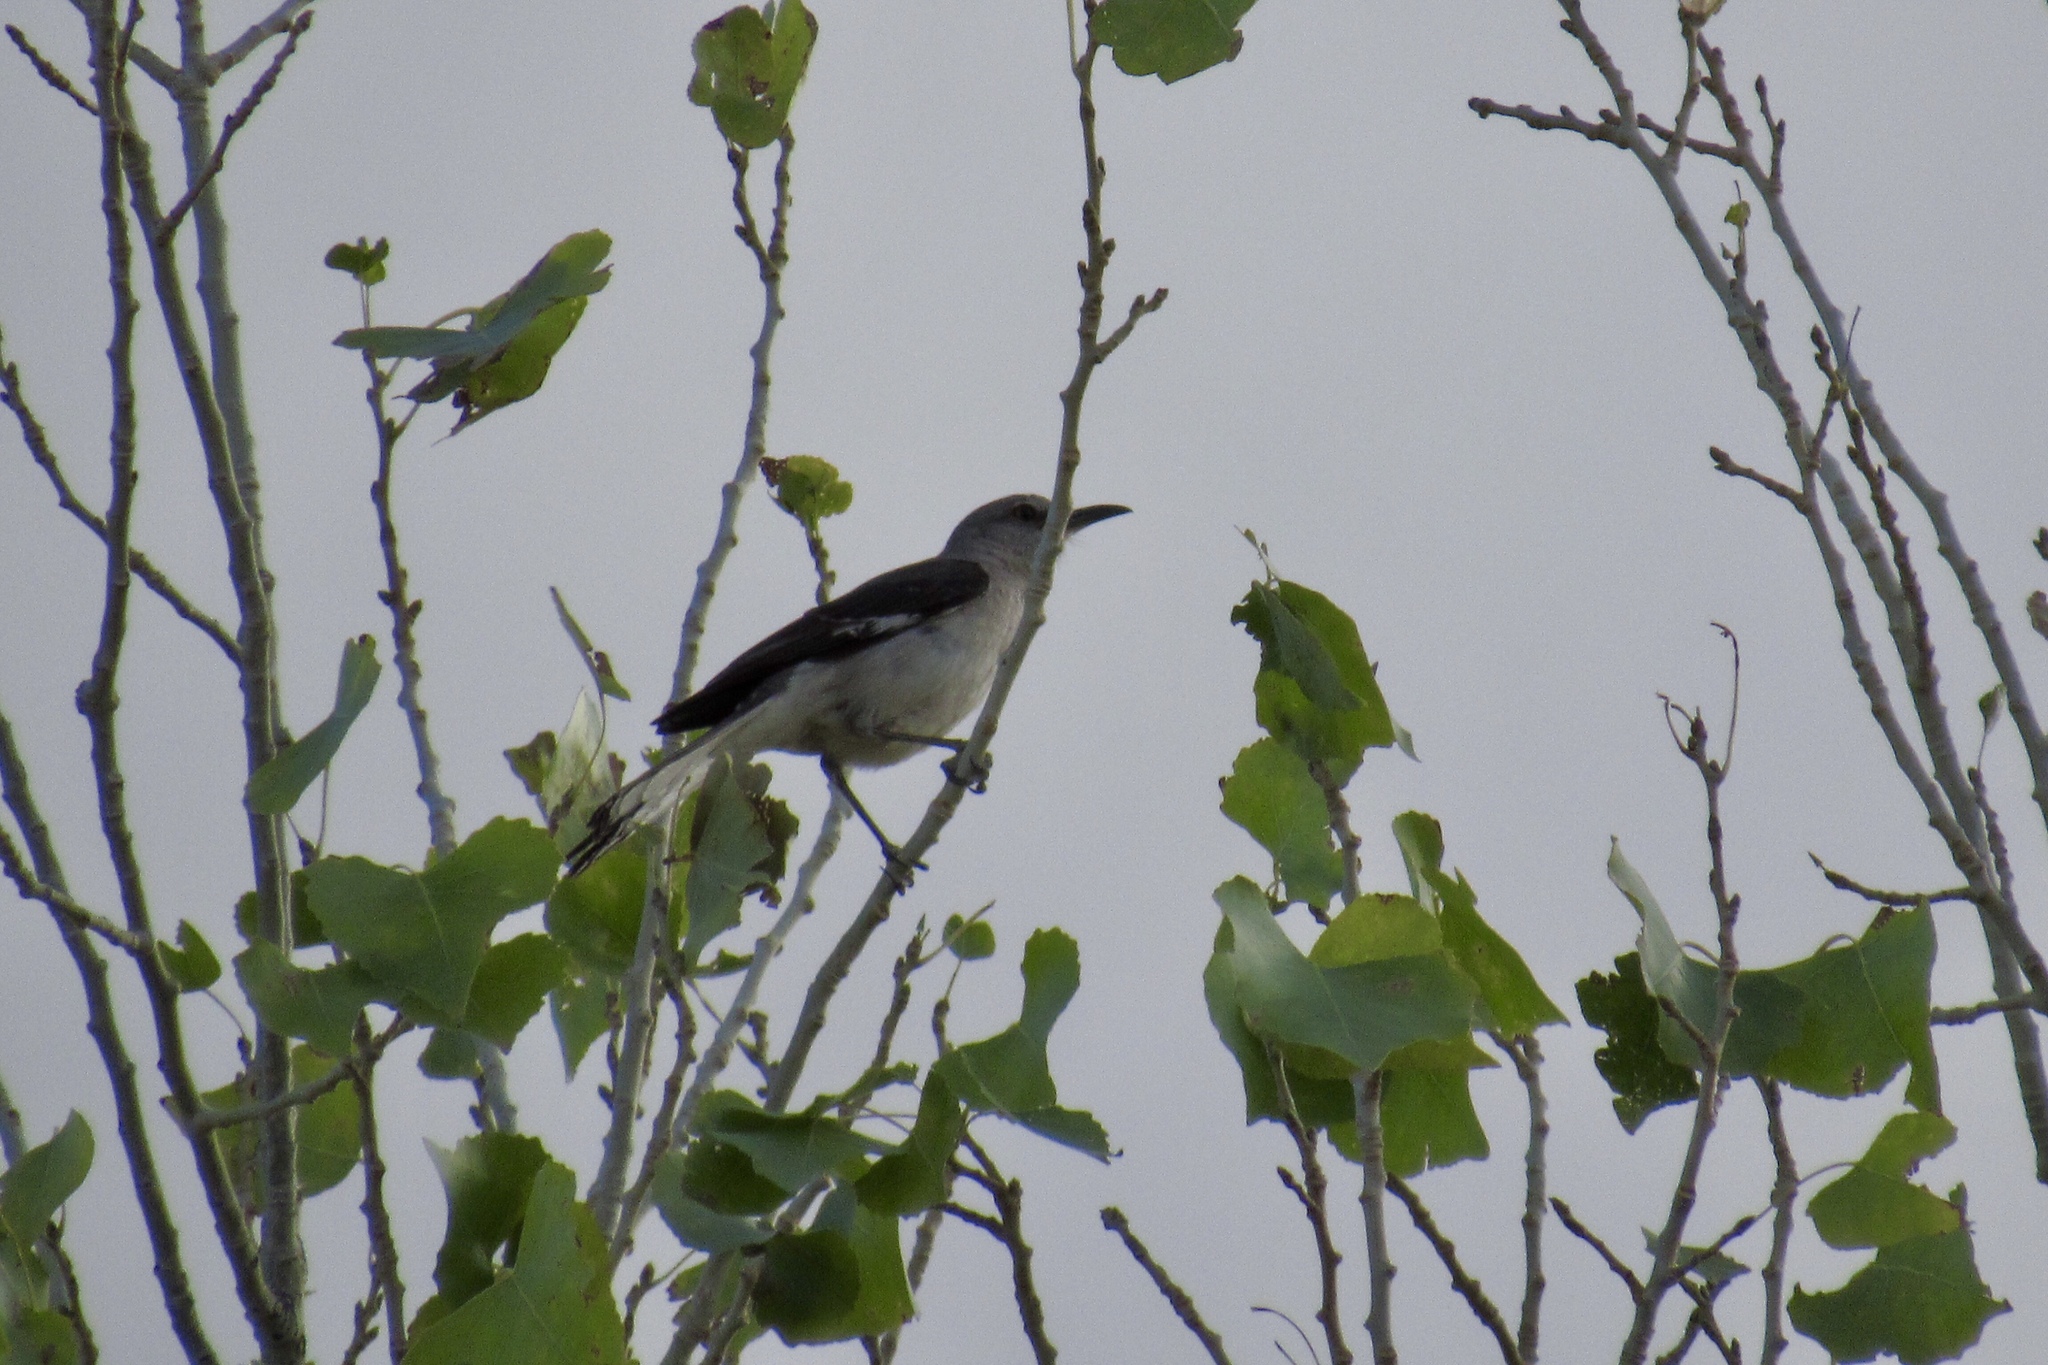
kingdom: Animalia
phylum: Chordata
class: Aves
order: Passeriformes
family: Mimidae
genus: Mimus
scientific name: Mimus polyglottos
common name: Northern mockingbird
